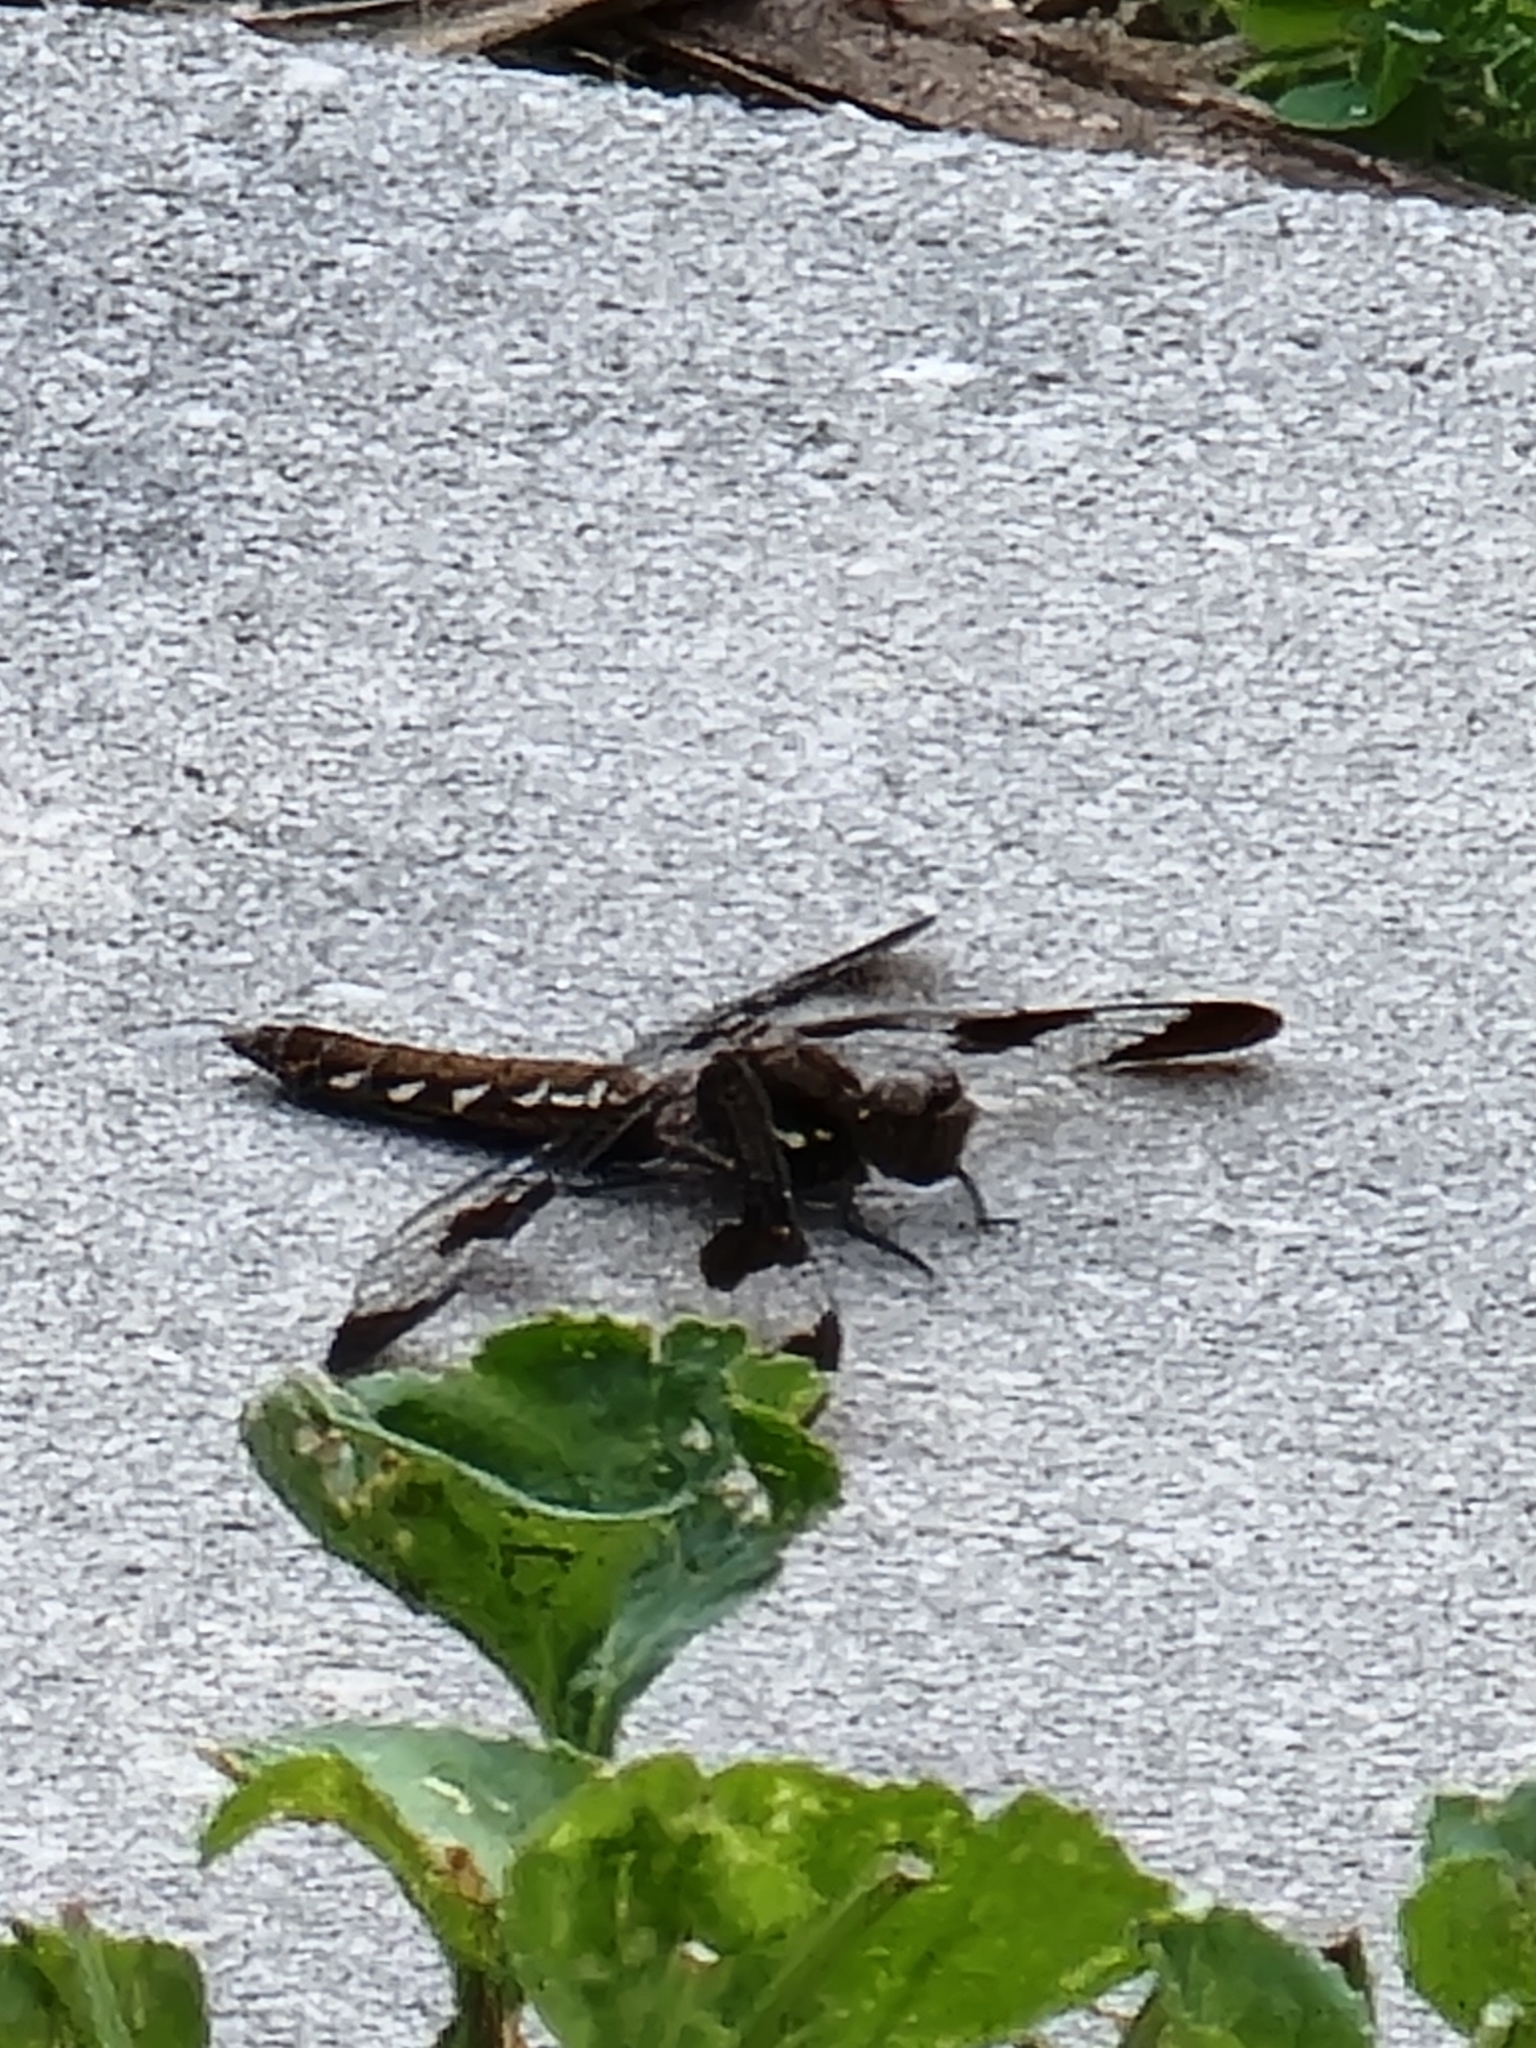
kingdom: Animalia
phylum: Arthropoda
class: Insecta
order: Odonata
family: Libellulidae
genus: Plathemis
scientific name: Plathemis lydia
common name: Common whitetail
